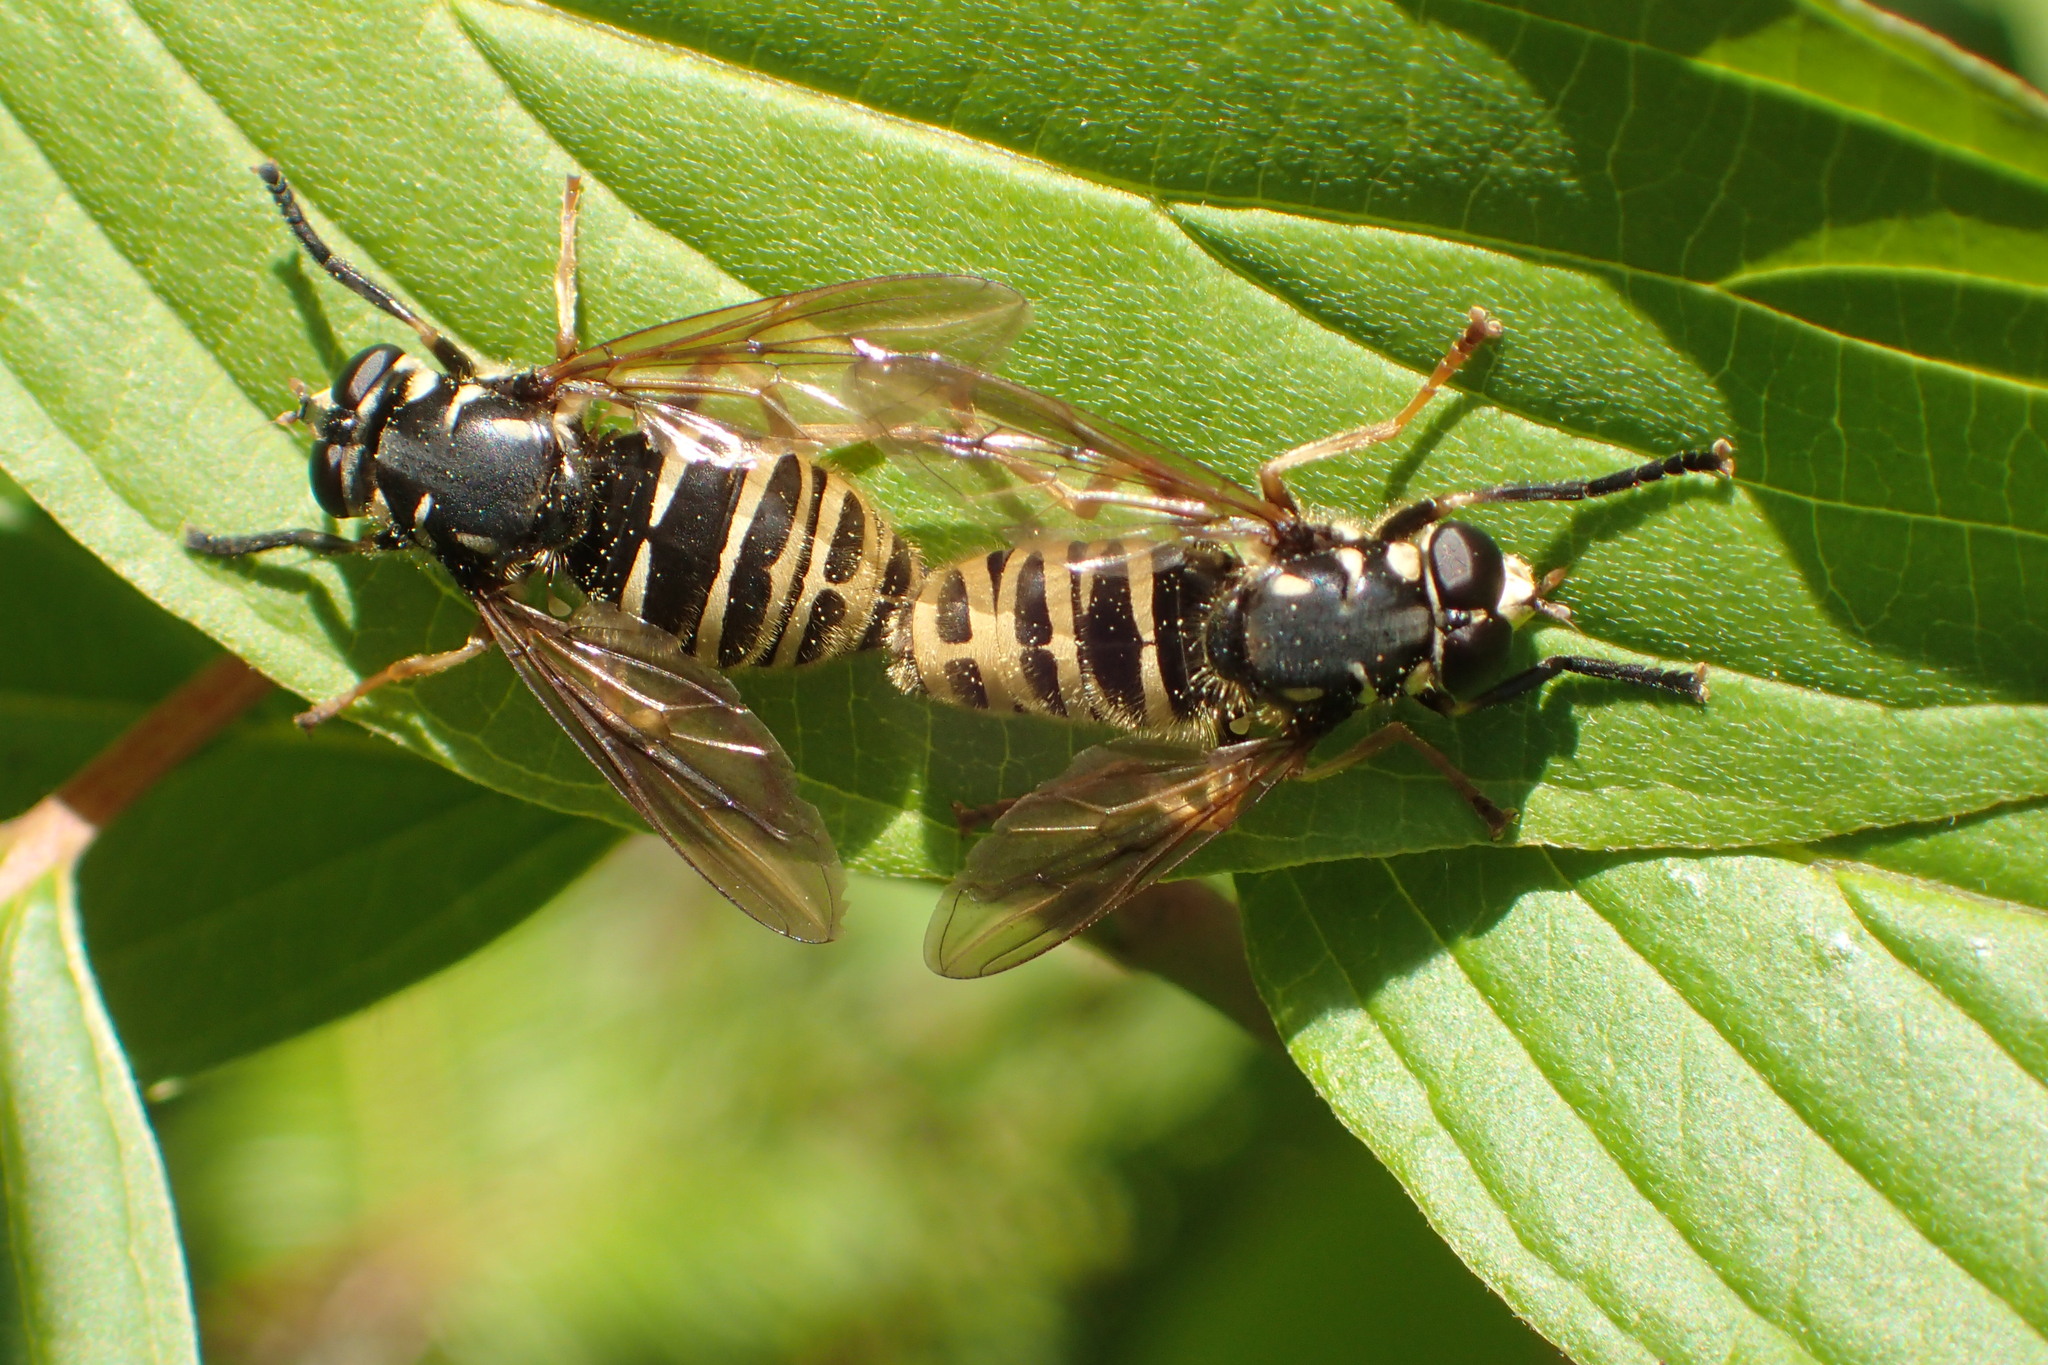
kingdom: Animalia
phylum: Arthropoda
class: Insecta
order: Diptera
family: Syrphidae
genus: Temnostoma
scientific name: Temnostoma excentricum
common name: Black-spotted falsehorn
